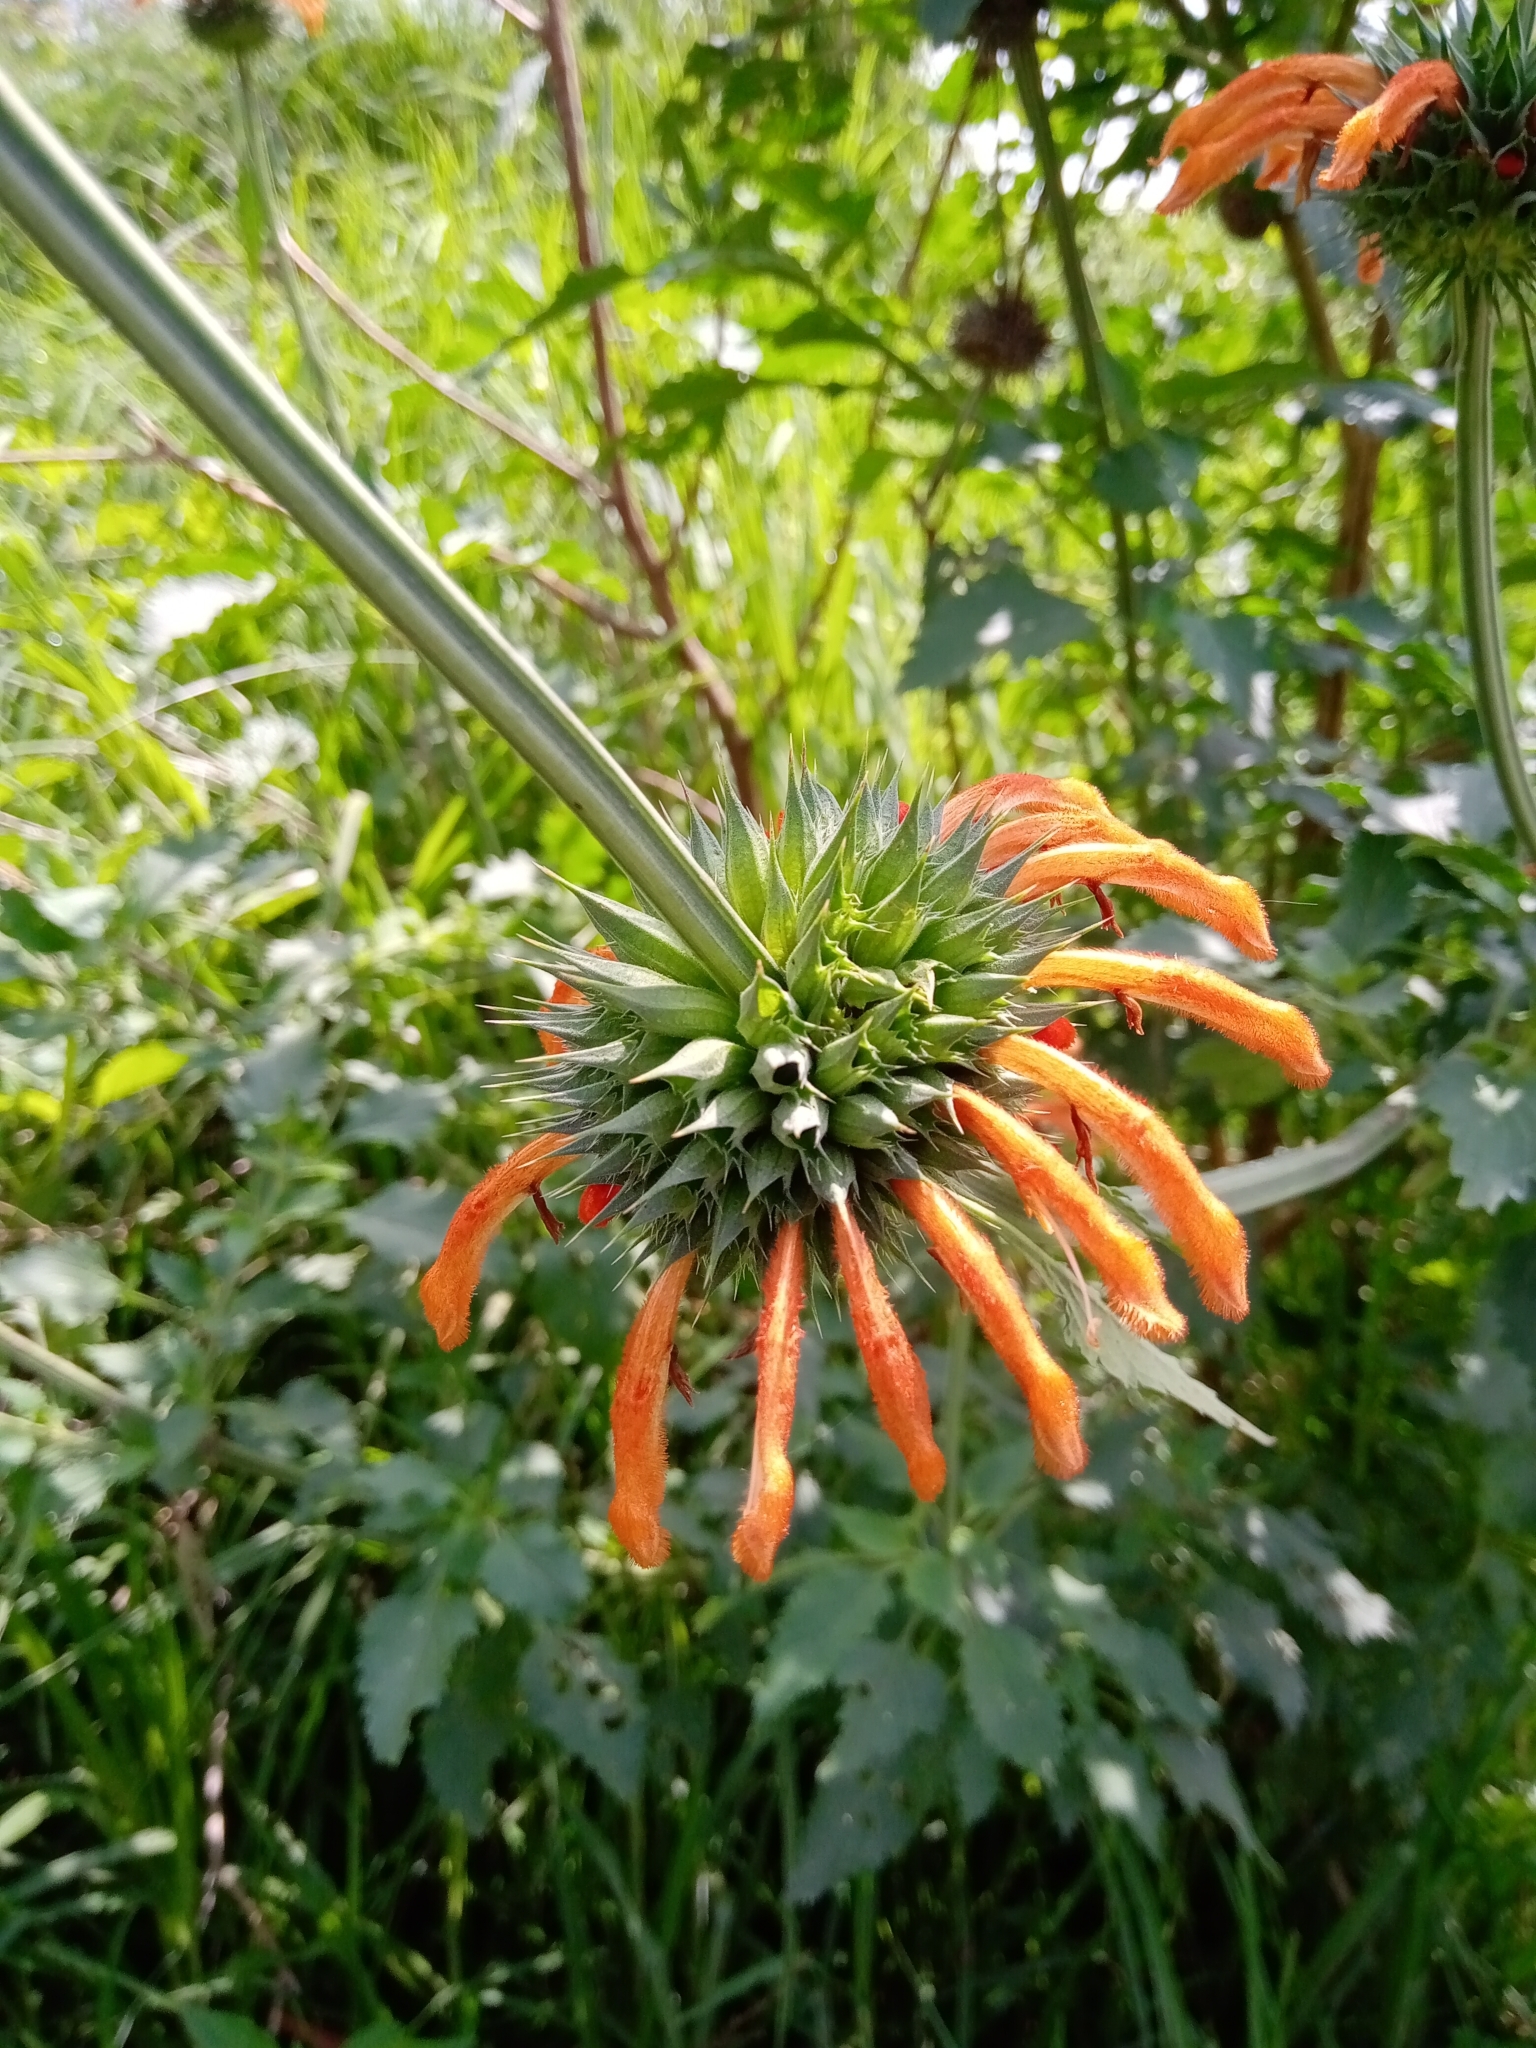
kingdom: Plantae
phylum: Tracheophyta
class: Magnoliopsida
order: Lamiales
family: Lamiaceae
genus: Leonotis
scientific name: Leonotis nepetifolia
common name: Christmas candlestick
